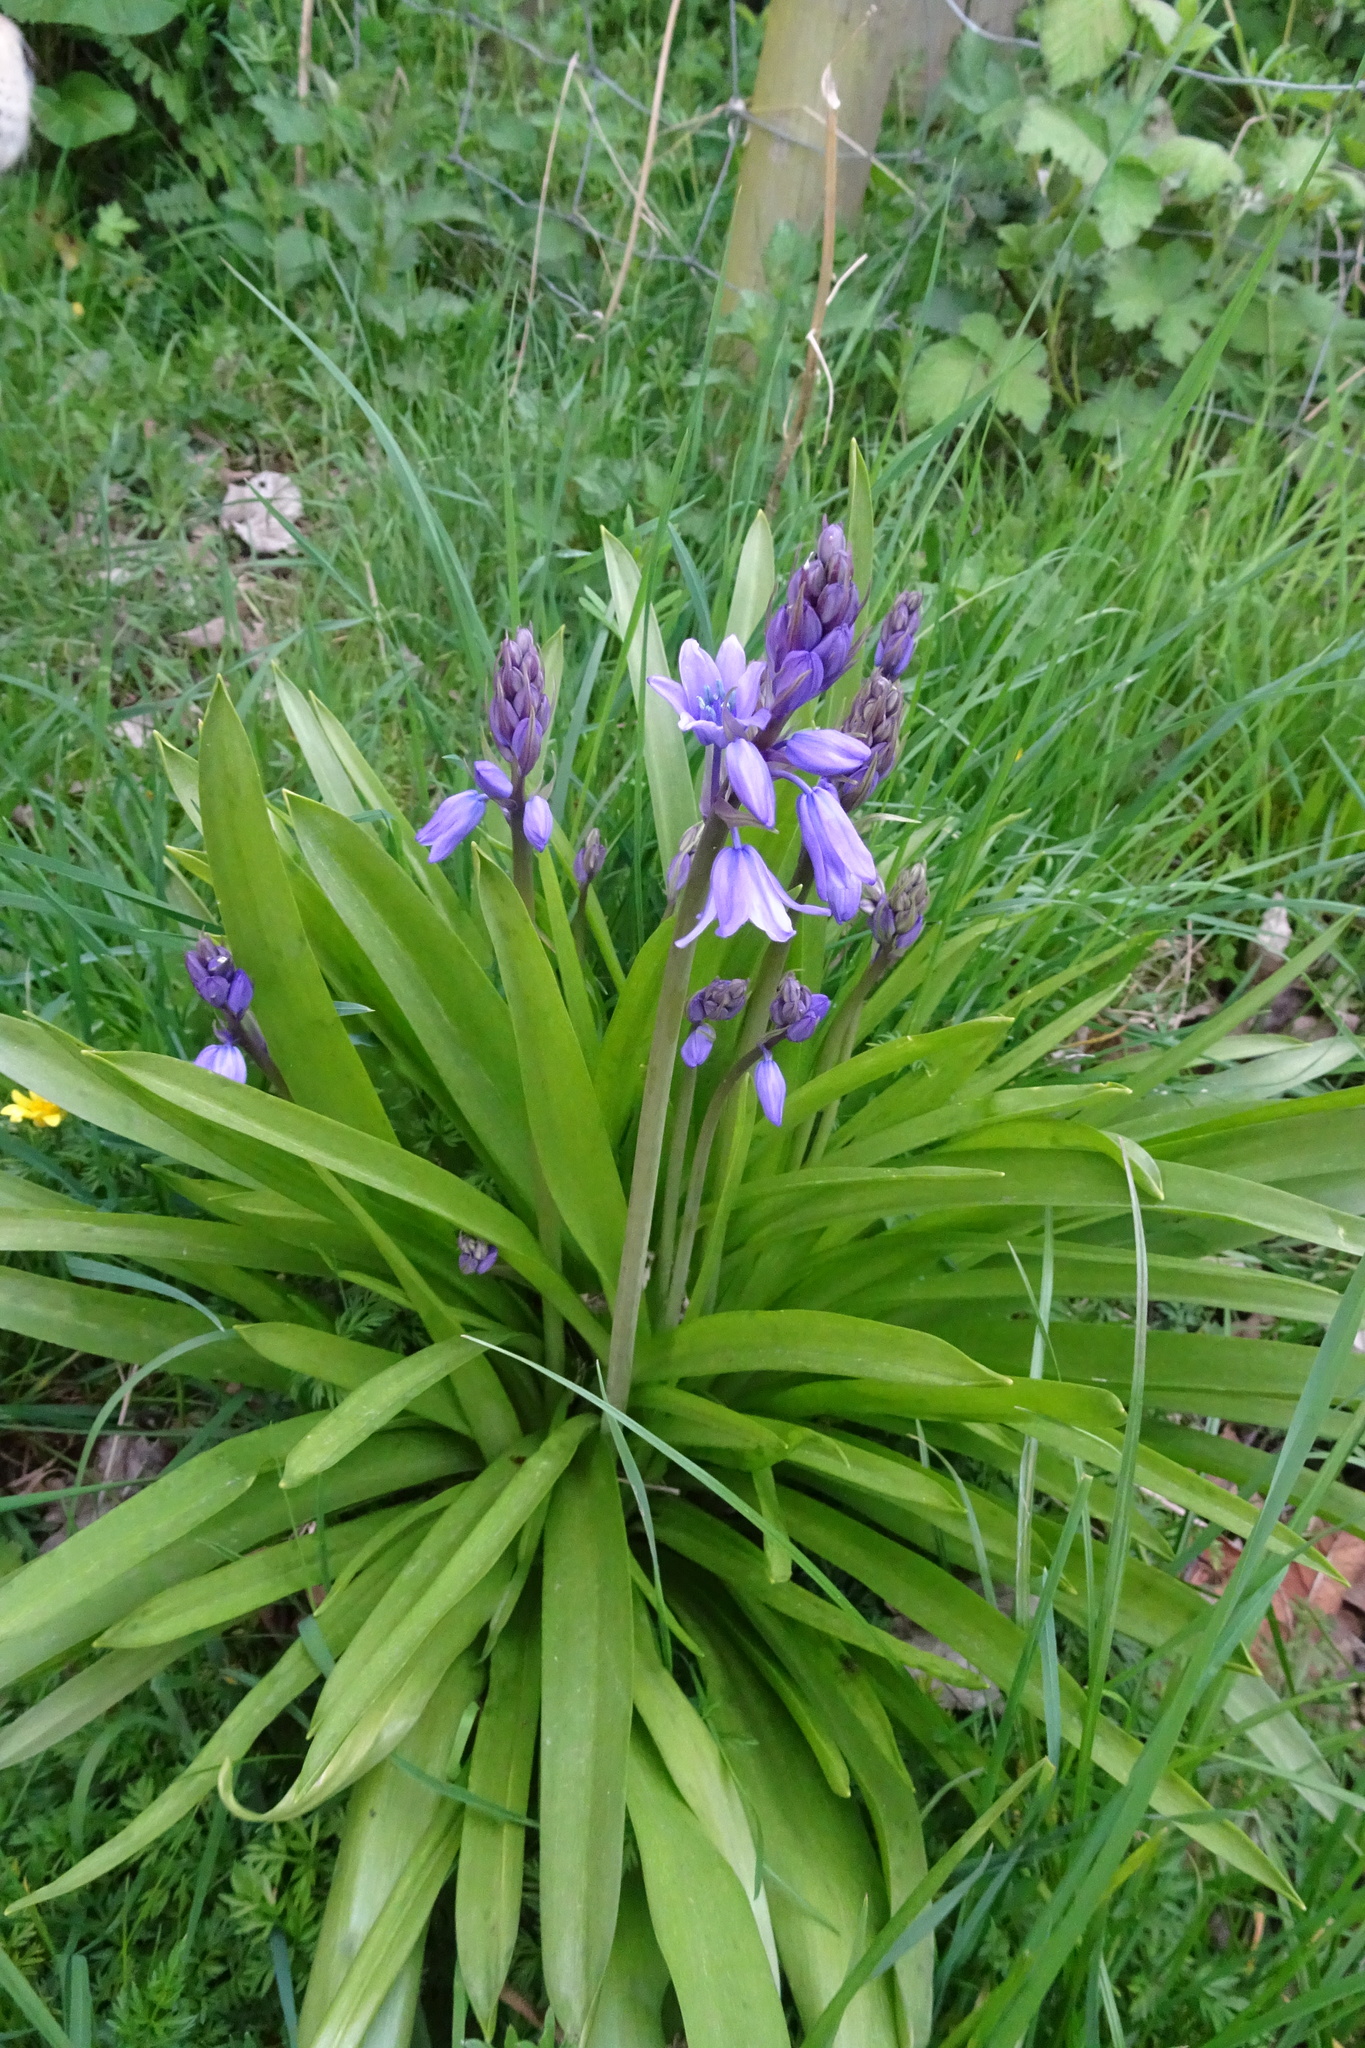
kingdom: Plantae
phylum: Tracheophyta
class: Liliopsida
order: Asparagales
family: Asparagaceae
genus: Hyacinthoides
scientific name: Hyacinthoides hispanica
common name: Spanish bluebell
